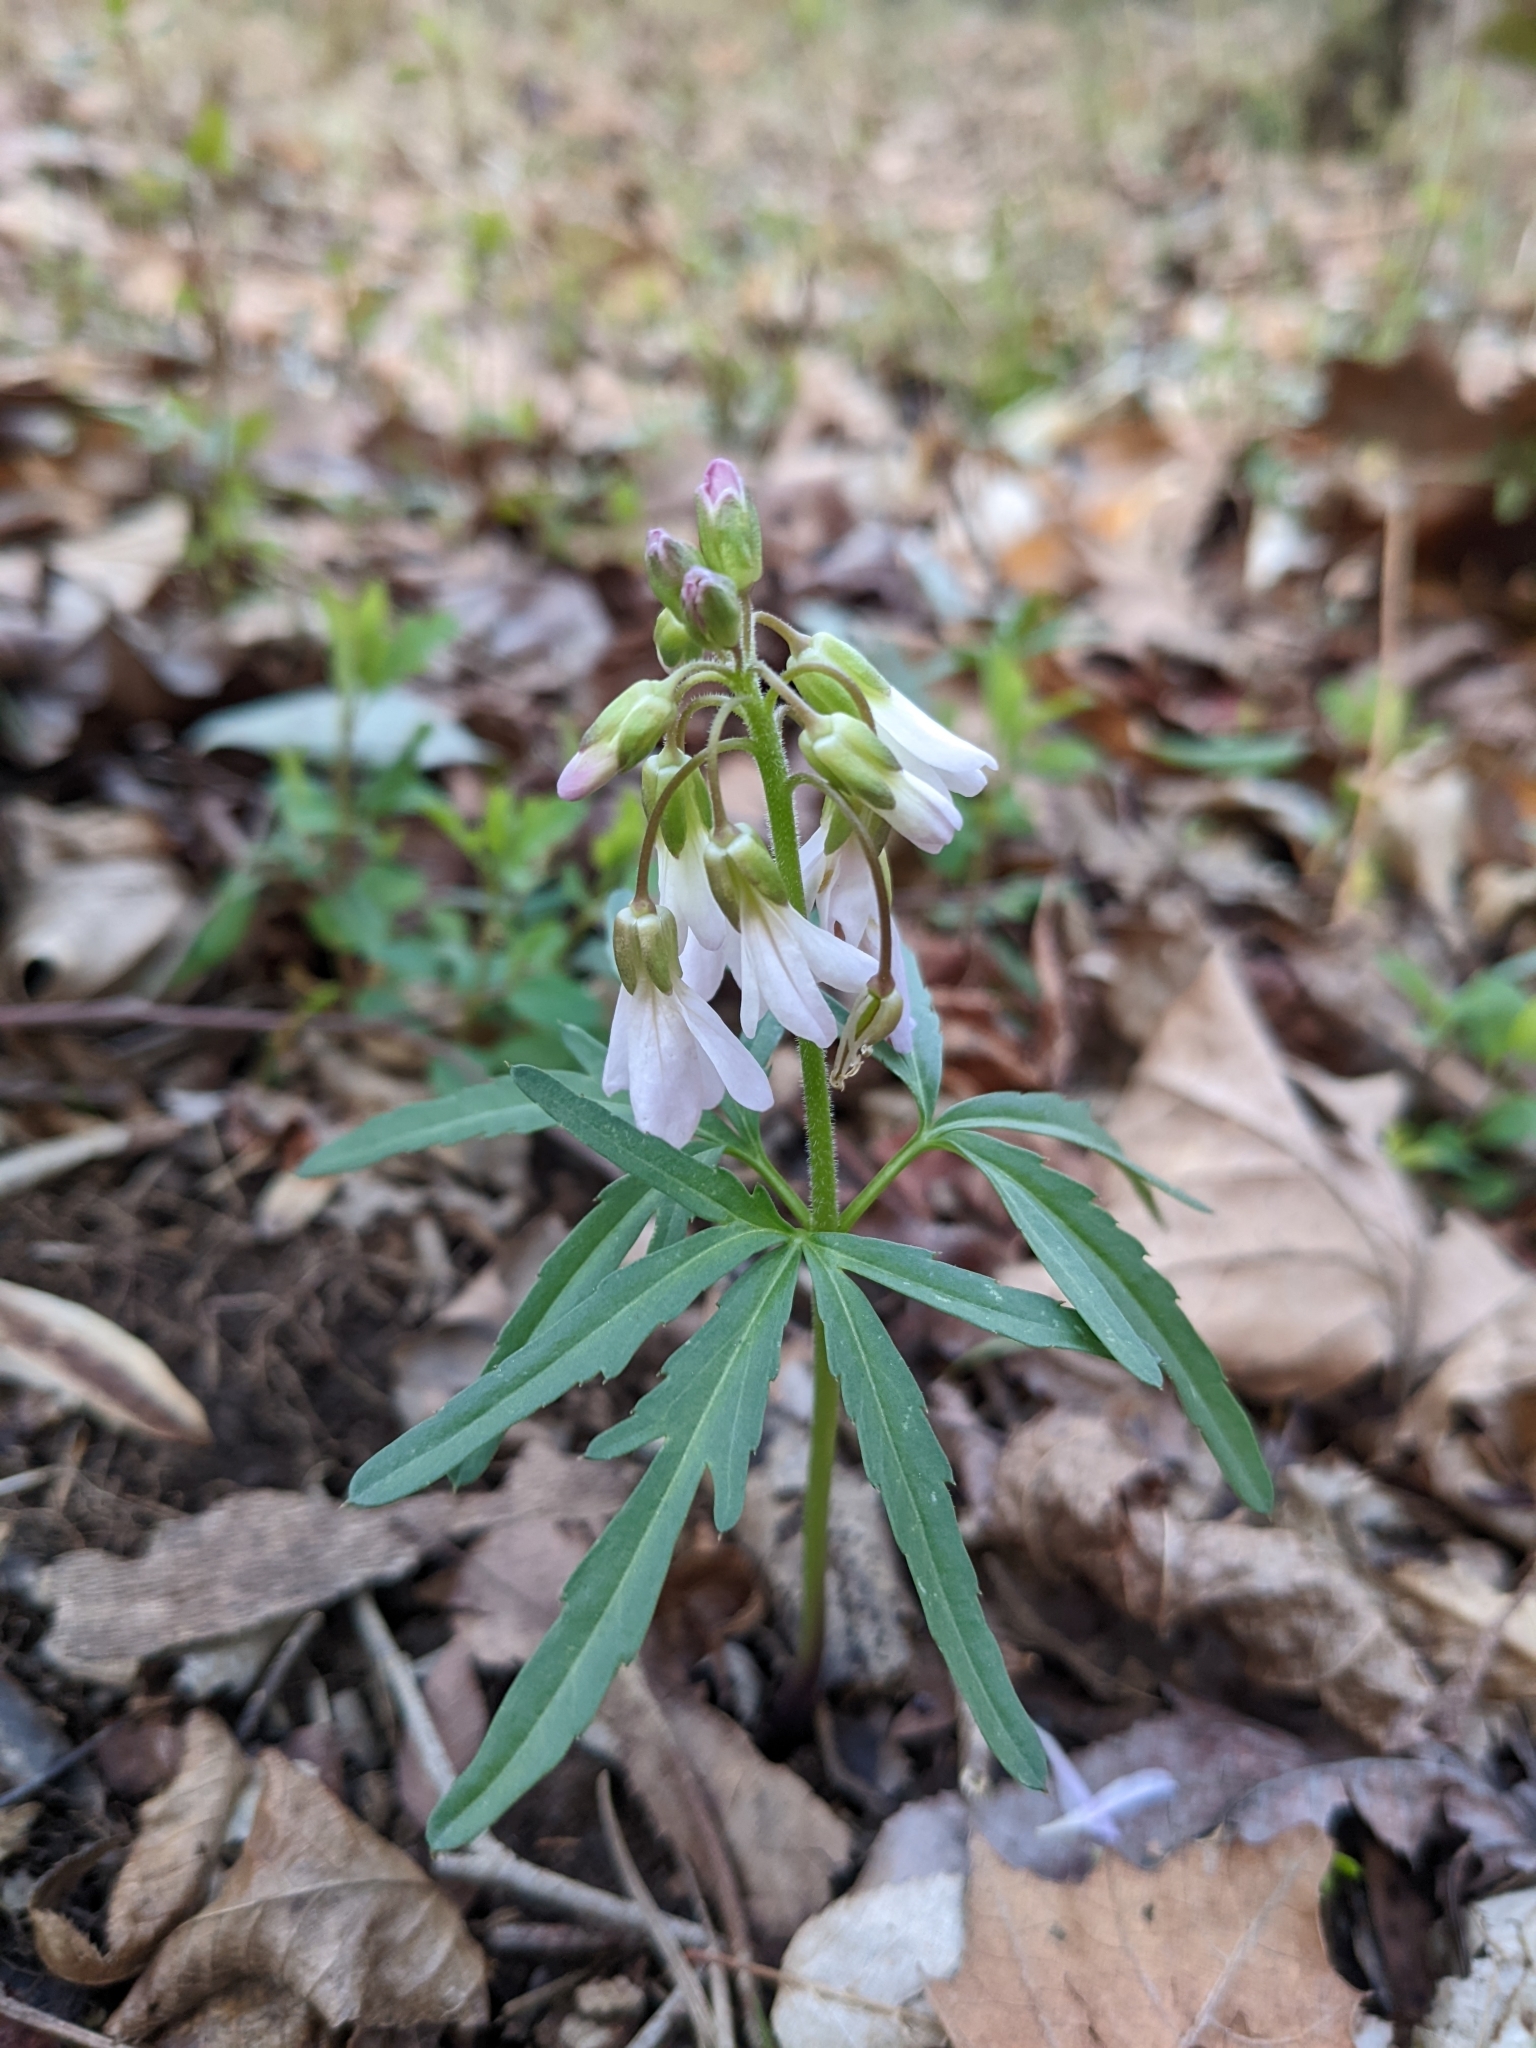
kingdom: Plantae
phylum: Tracheophyta
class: Magnoliopsida
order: Brassicales
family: Brassicaceae
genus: Cardamine
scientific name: Cardamine concatenata
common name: Cut-leaf toothcup
